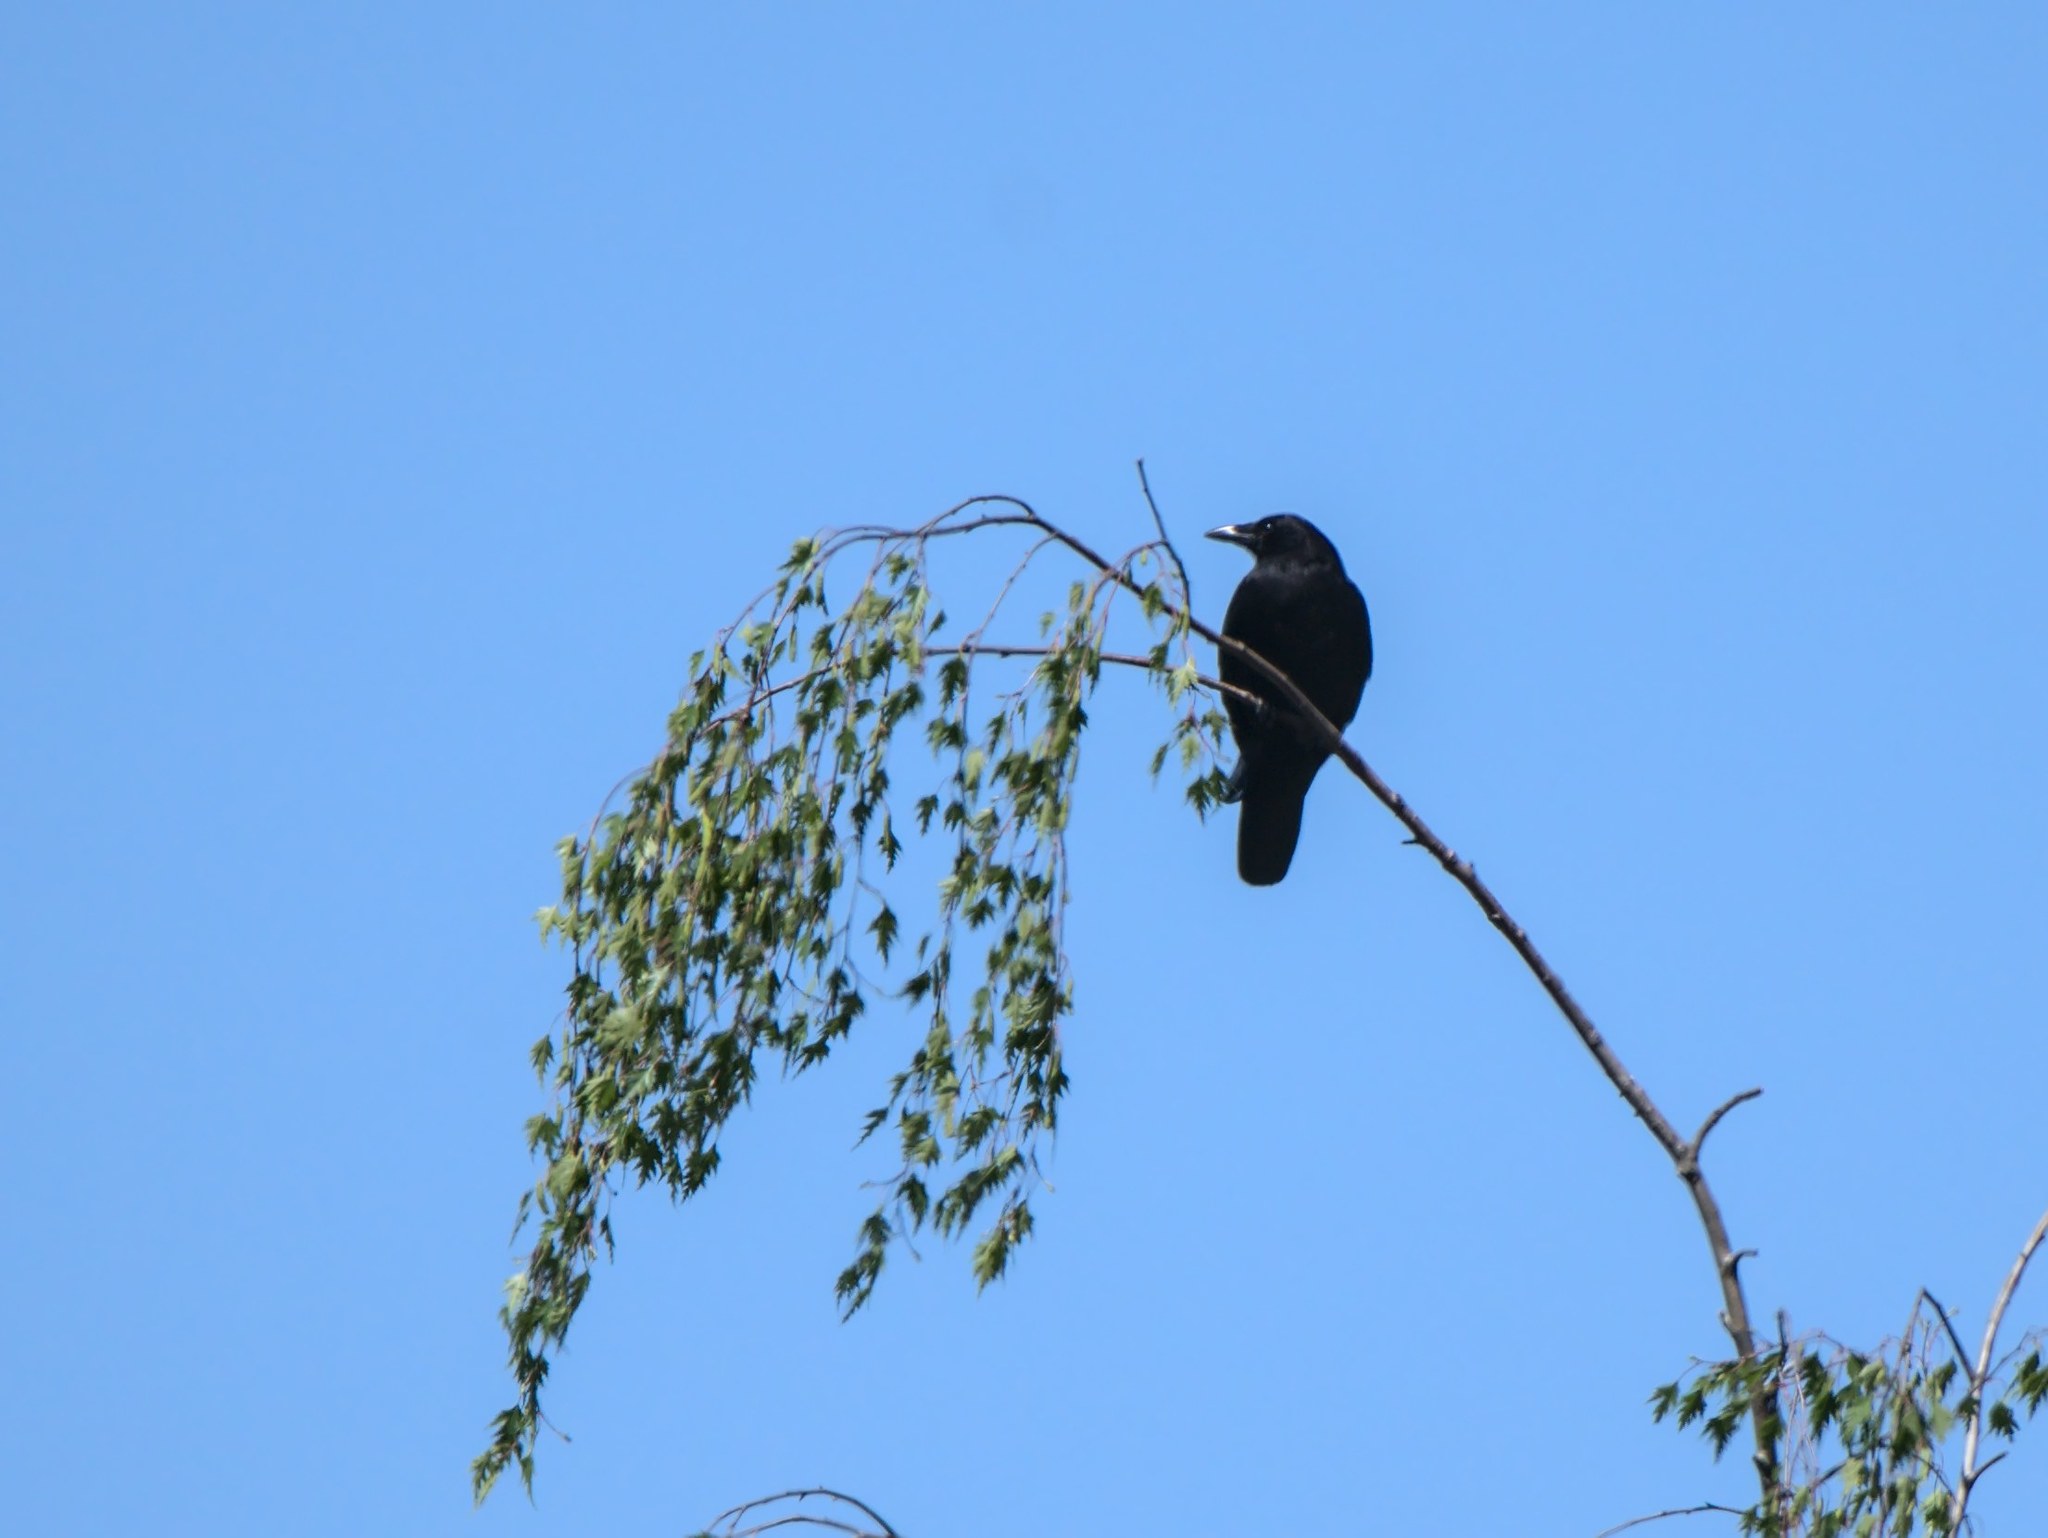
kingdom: Animalia
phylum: Chordata
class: Aves
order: Passeriformes
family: Corvidae
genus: Corvus
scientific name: Corvus brachyrhynchos
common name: American crow
